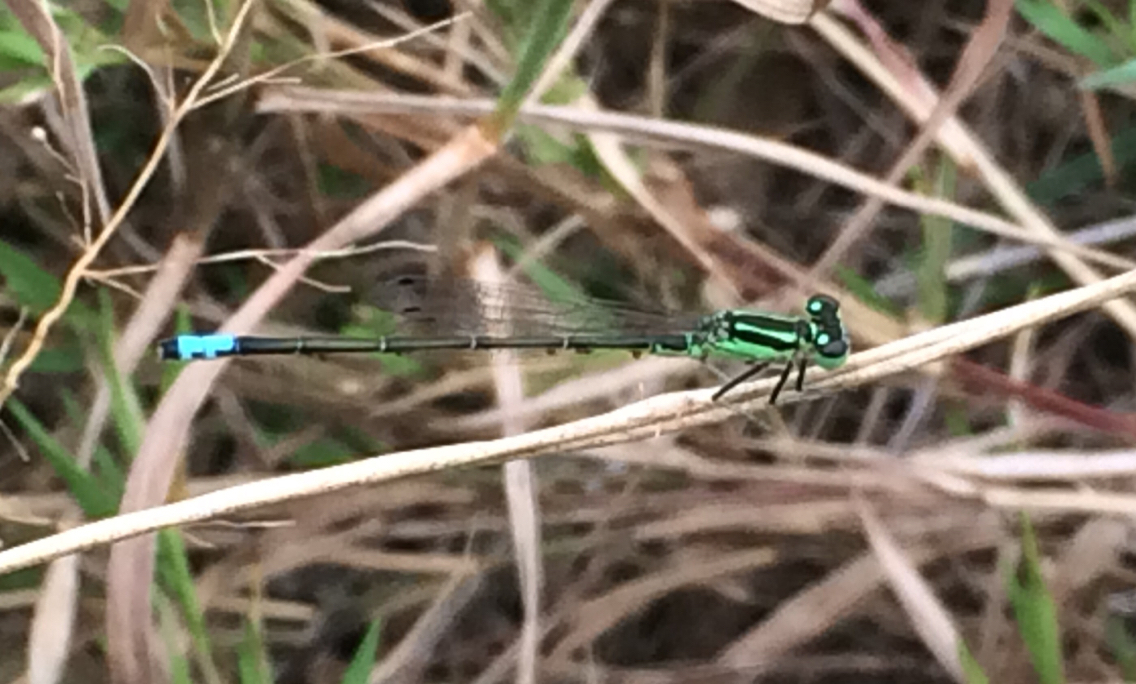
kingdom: Animalia
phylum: Arthropoda
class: Insecta
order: Odonata
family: Coenagrionidae
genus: Ischnura
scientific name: Ischnura verticalis
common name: Eastern forktail
